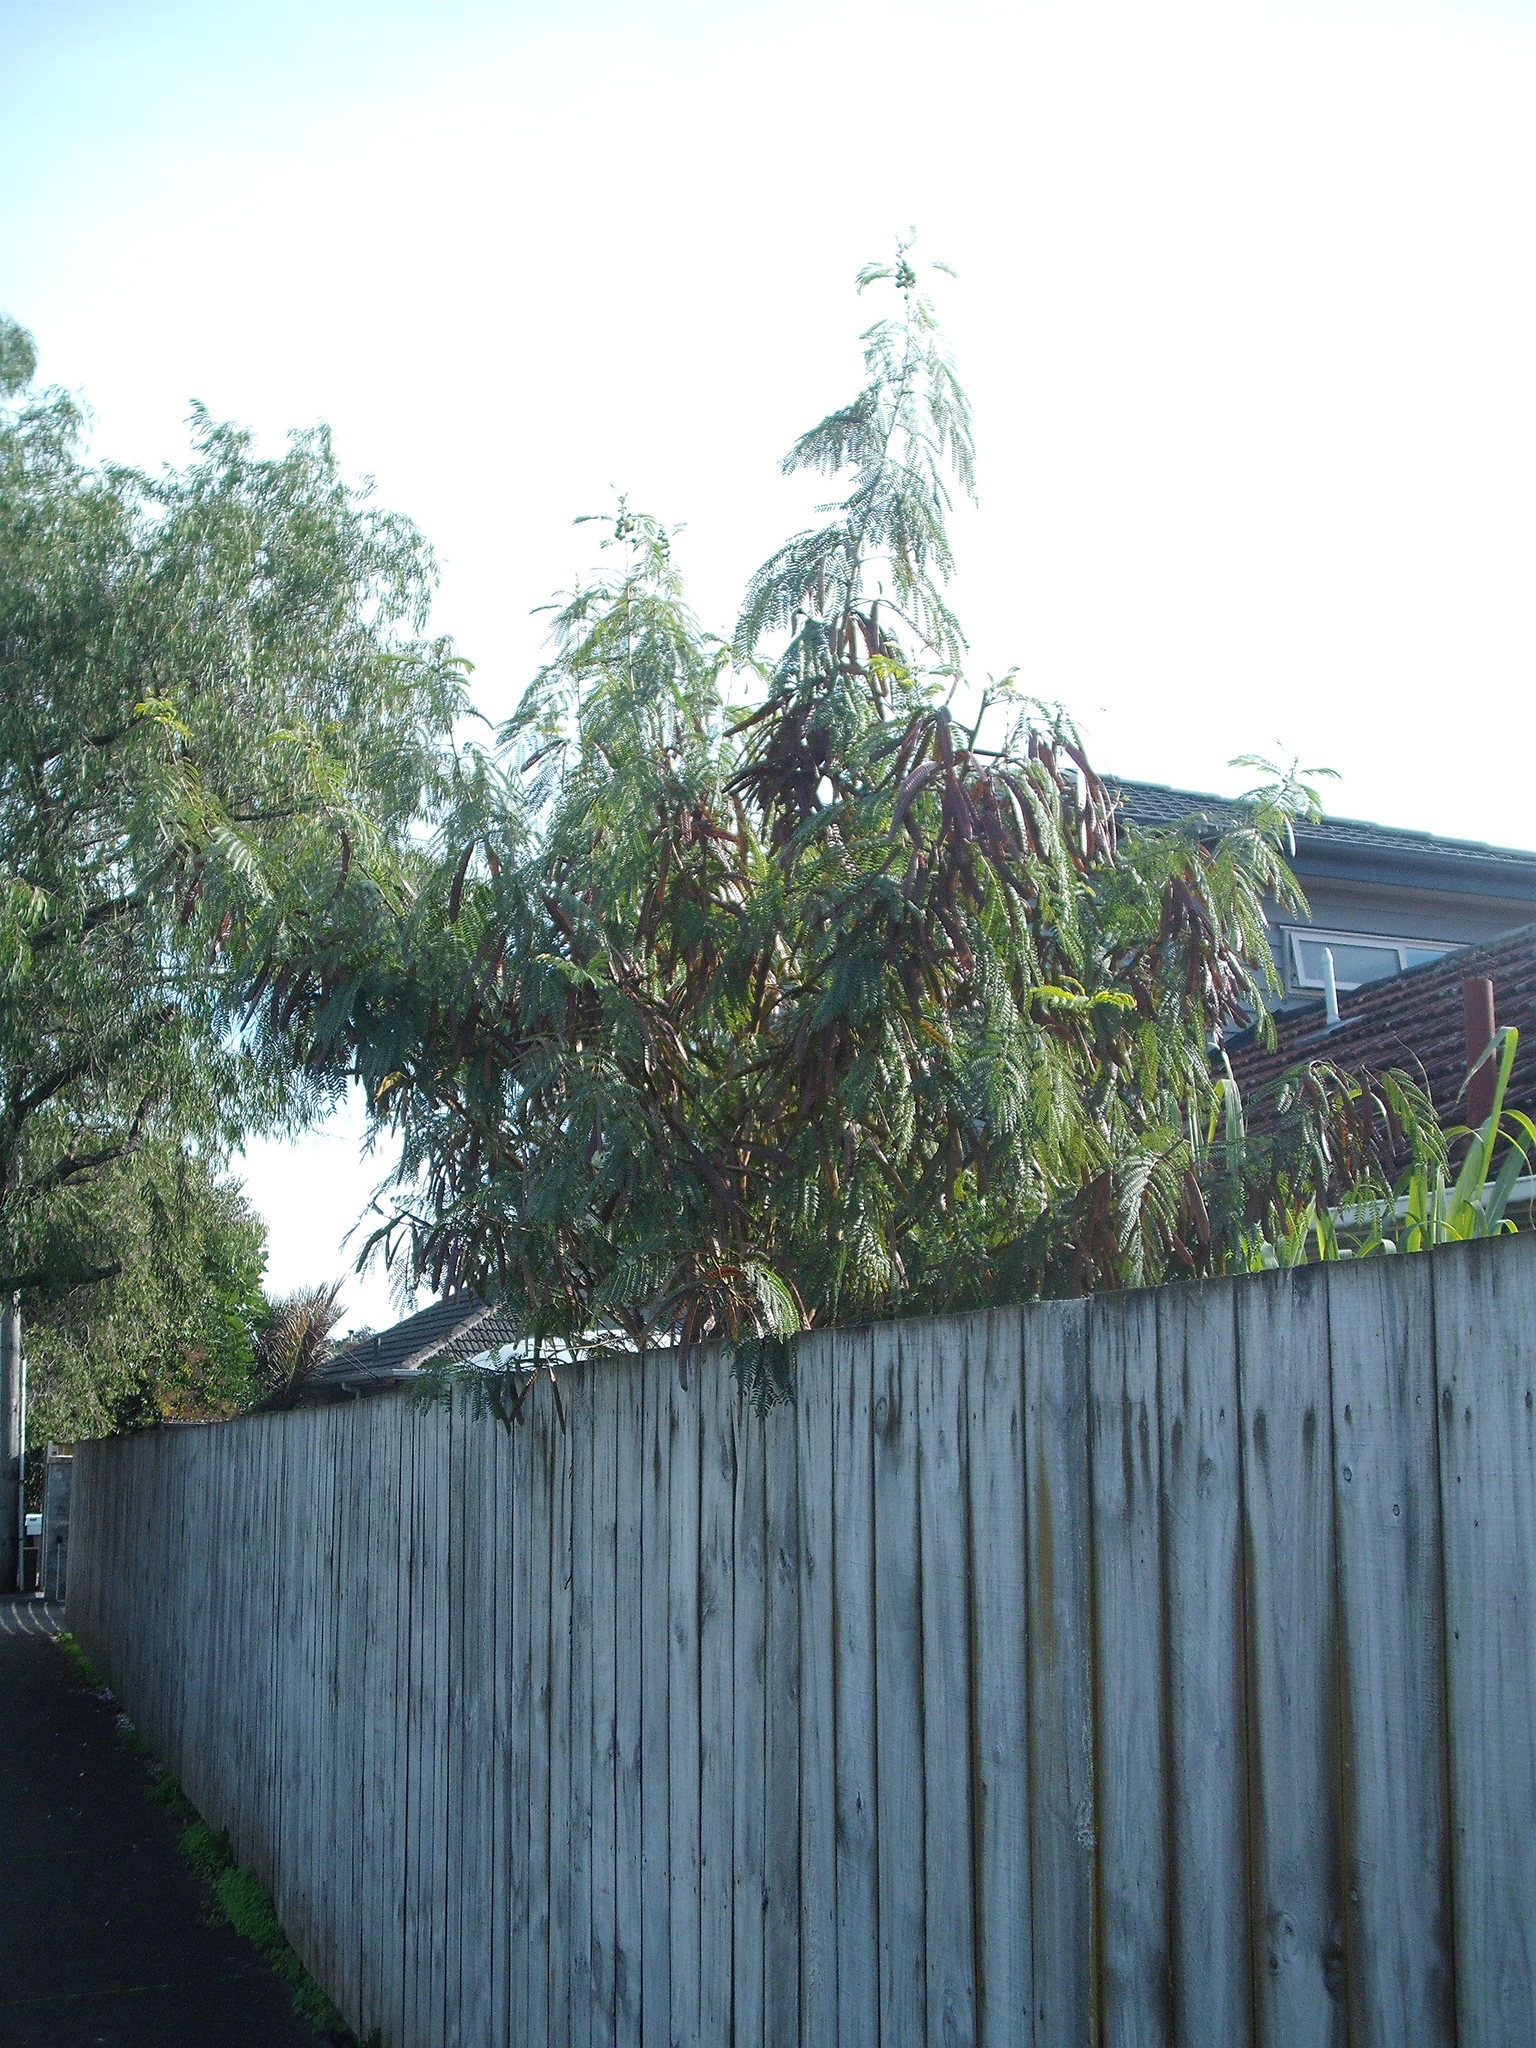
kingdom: Plantae
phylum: Tracheophyta
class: Magnoliopsida
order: Fabales
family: Fabaceae
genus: Leucaena
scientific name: Leucaena leucocephala
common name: White leadtree
